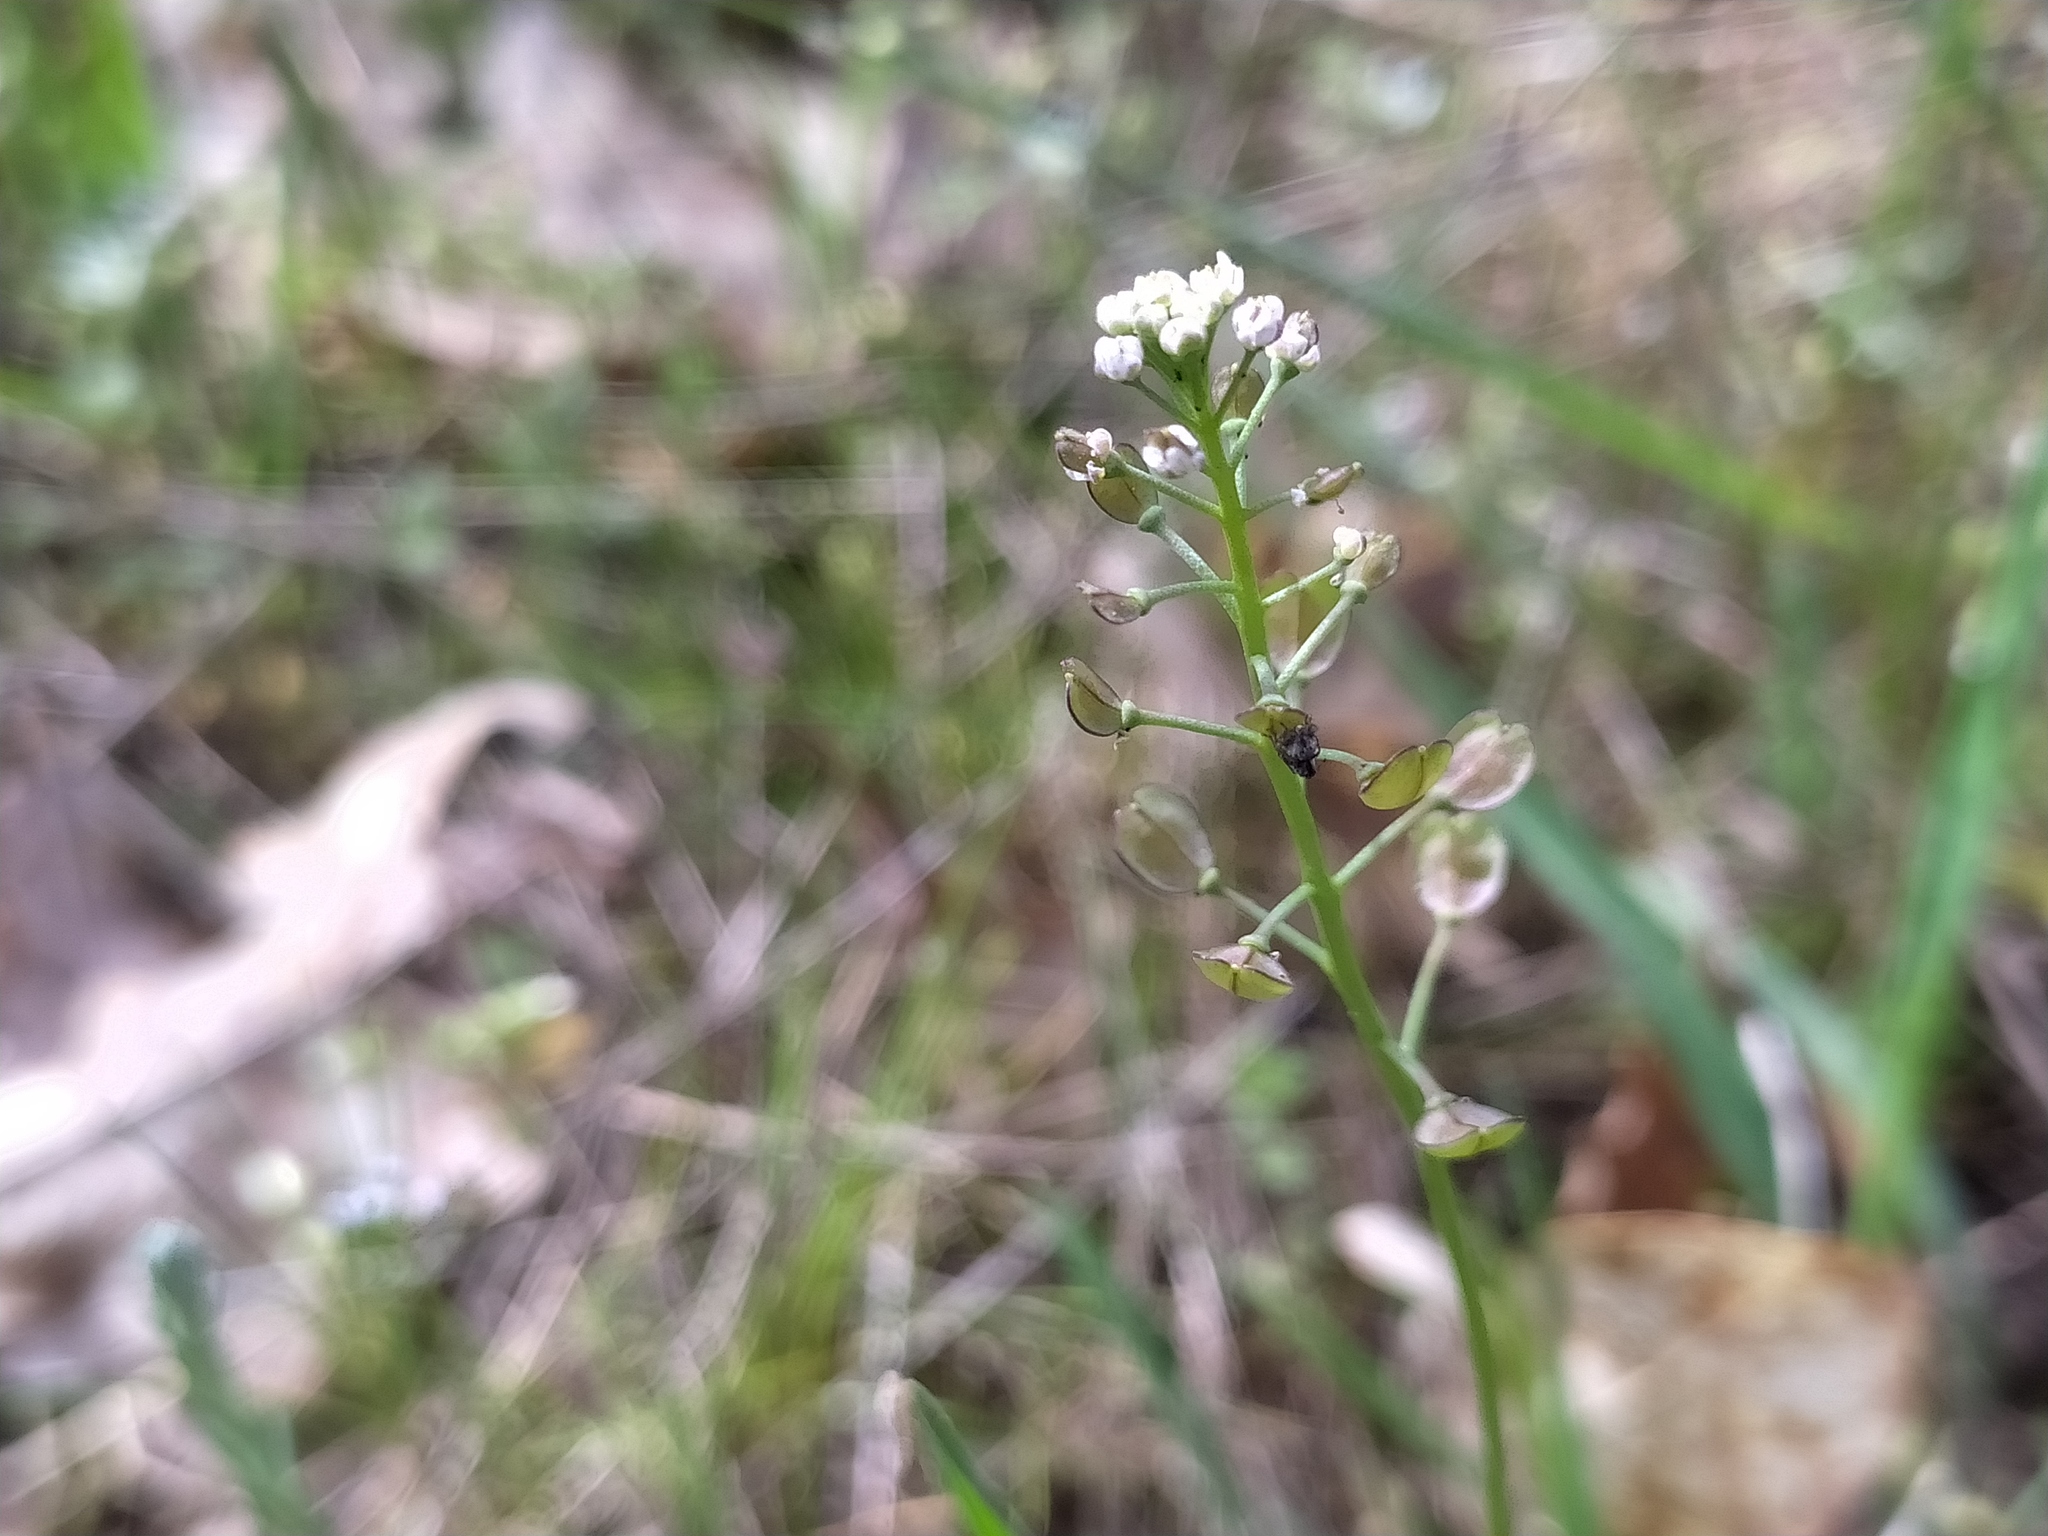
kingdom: Plantae
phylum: Tracheophyta
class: Magnoliopsida
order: Brassicales
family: Brassicaceae
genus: Teesdalia
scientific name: Teesdalia nudicaulis
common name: Shepherd's cress
